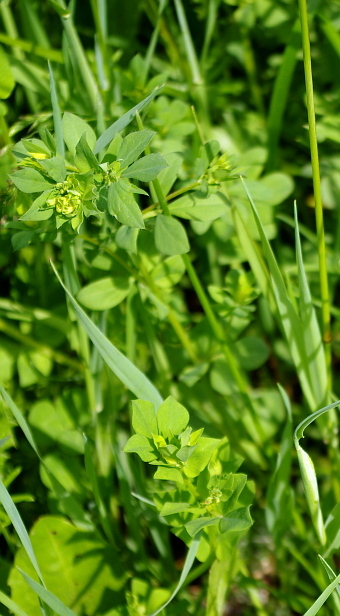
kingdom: Plantae
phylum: Tracheophyta
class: Magnoliopsida
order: Fabales
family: Fabaceae
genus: Lotus
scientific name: Lotus corniculatus
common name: Common bird's-foot-trefoil
